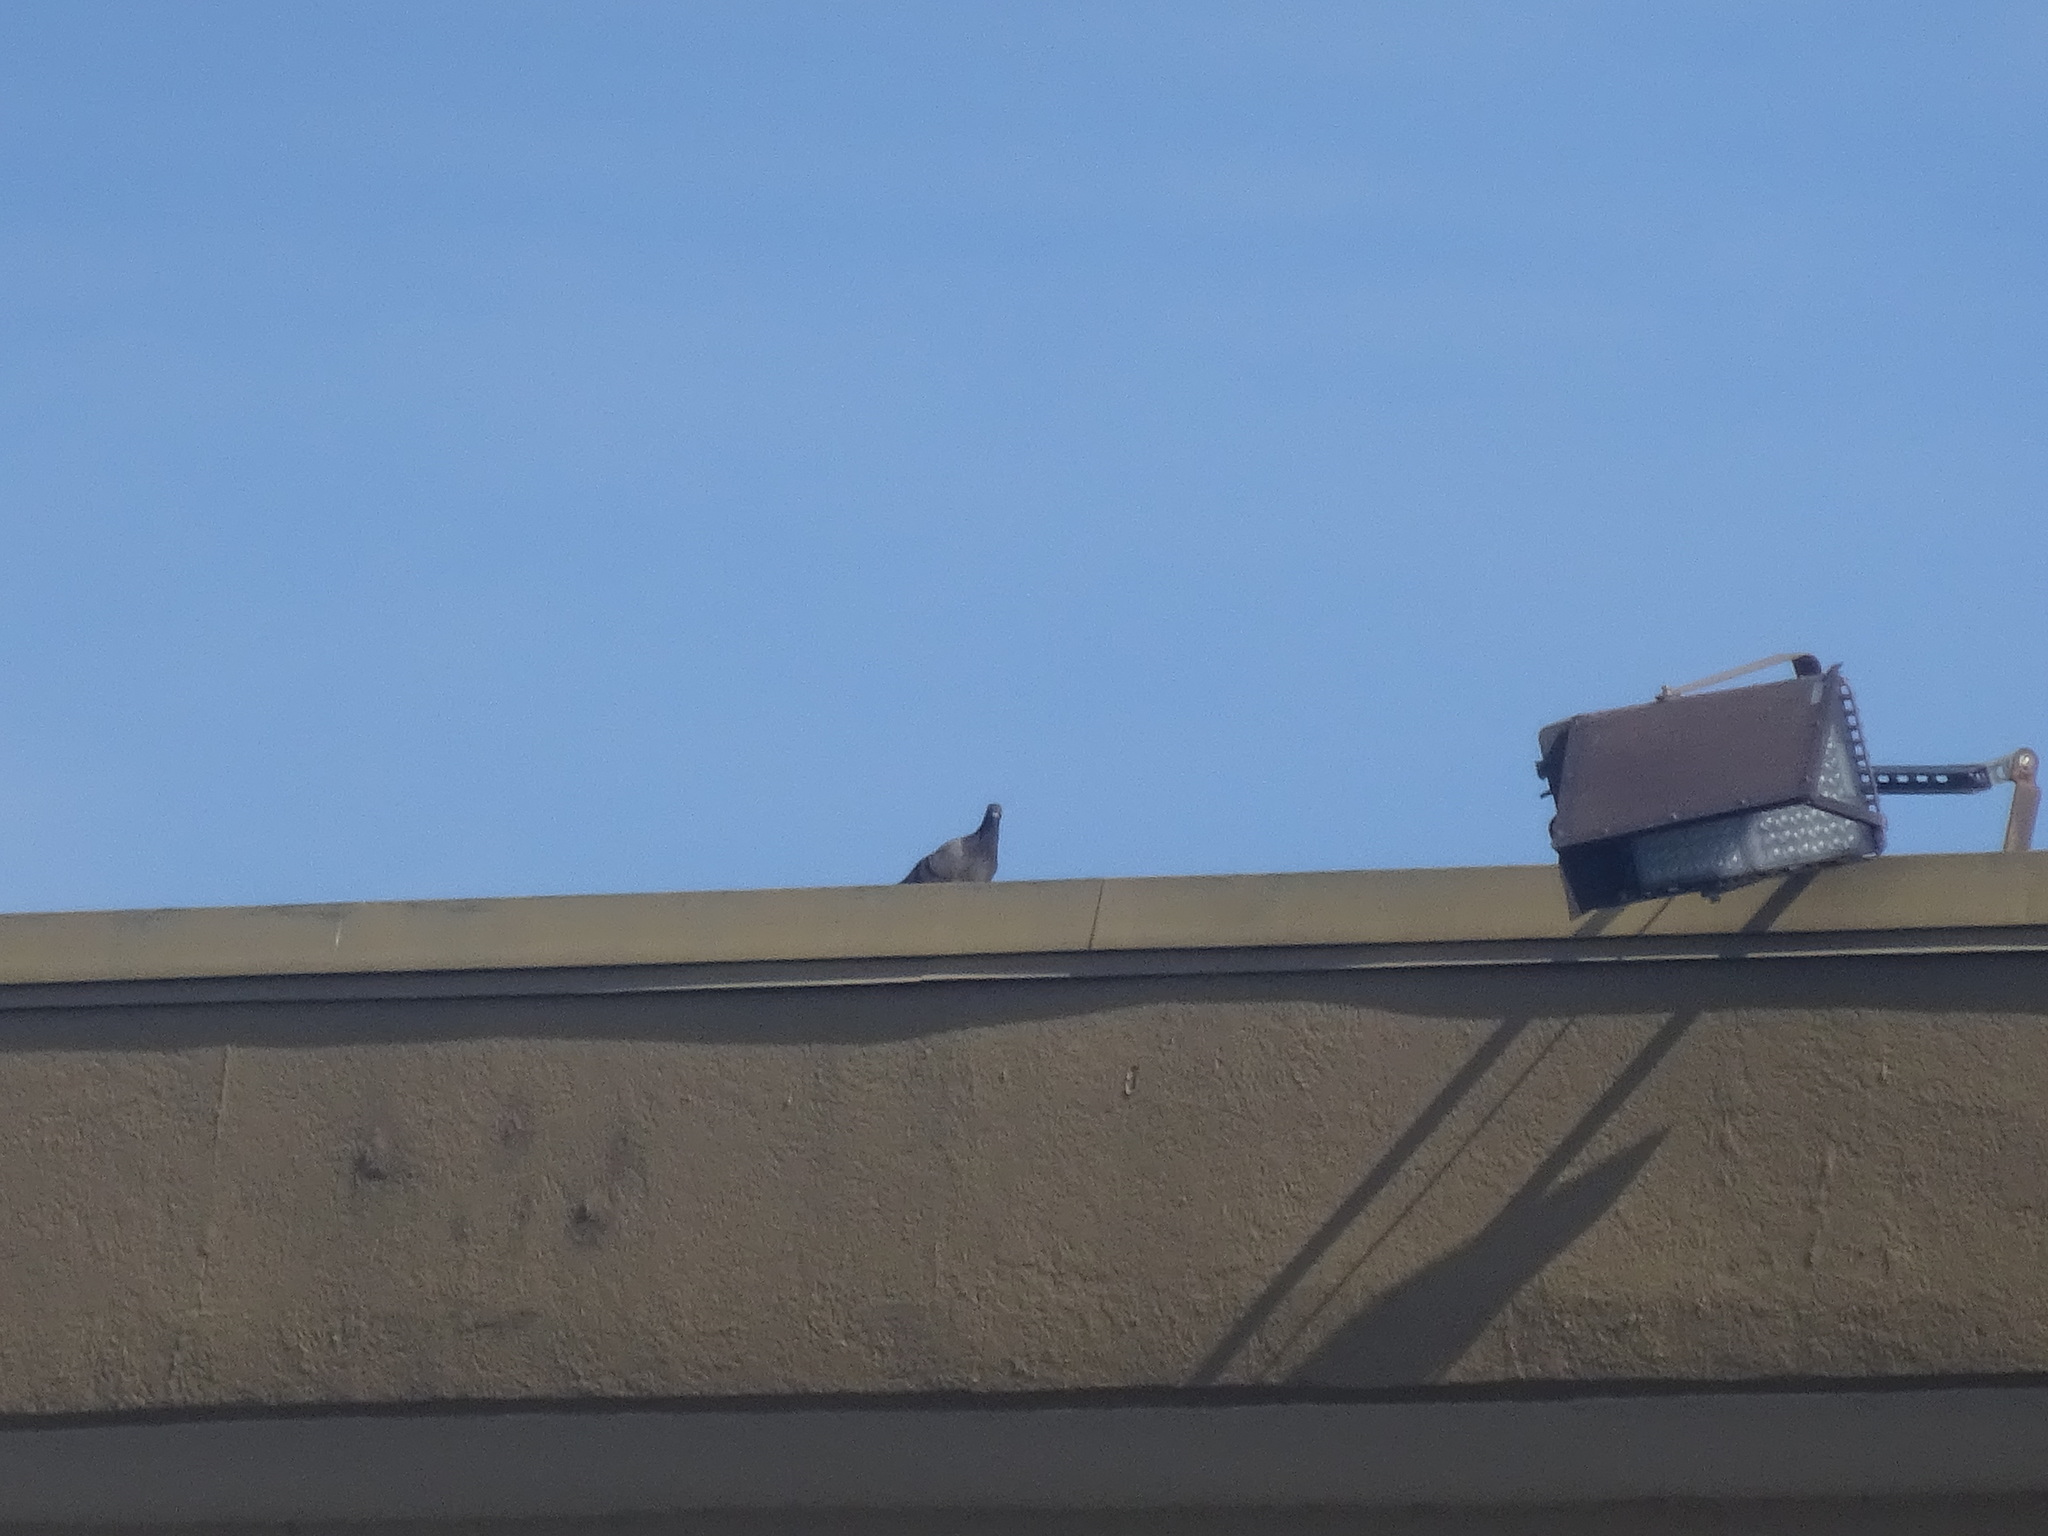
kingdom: Animalia
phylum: Chordata
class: Aves
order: Columbiformes
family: Columbidae
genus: Columba
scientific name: Columba livia
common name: Rock pigeon
